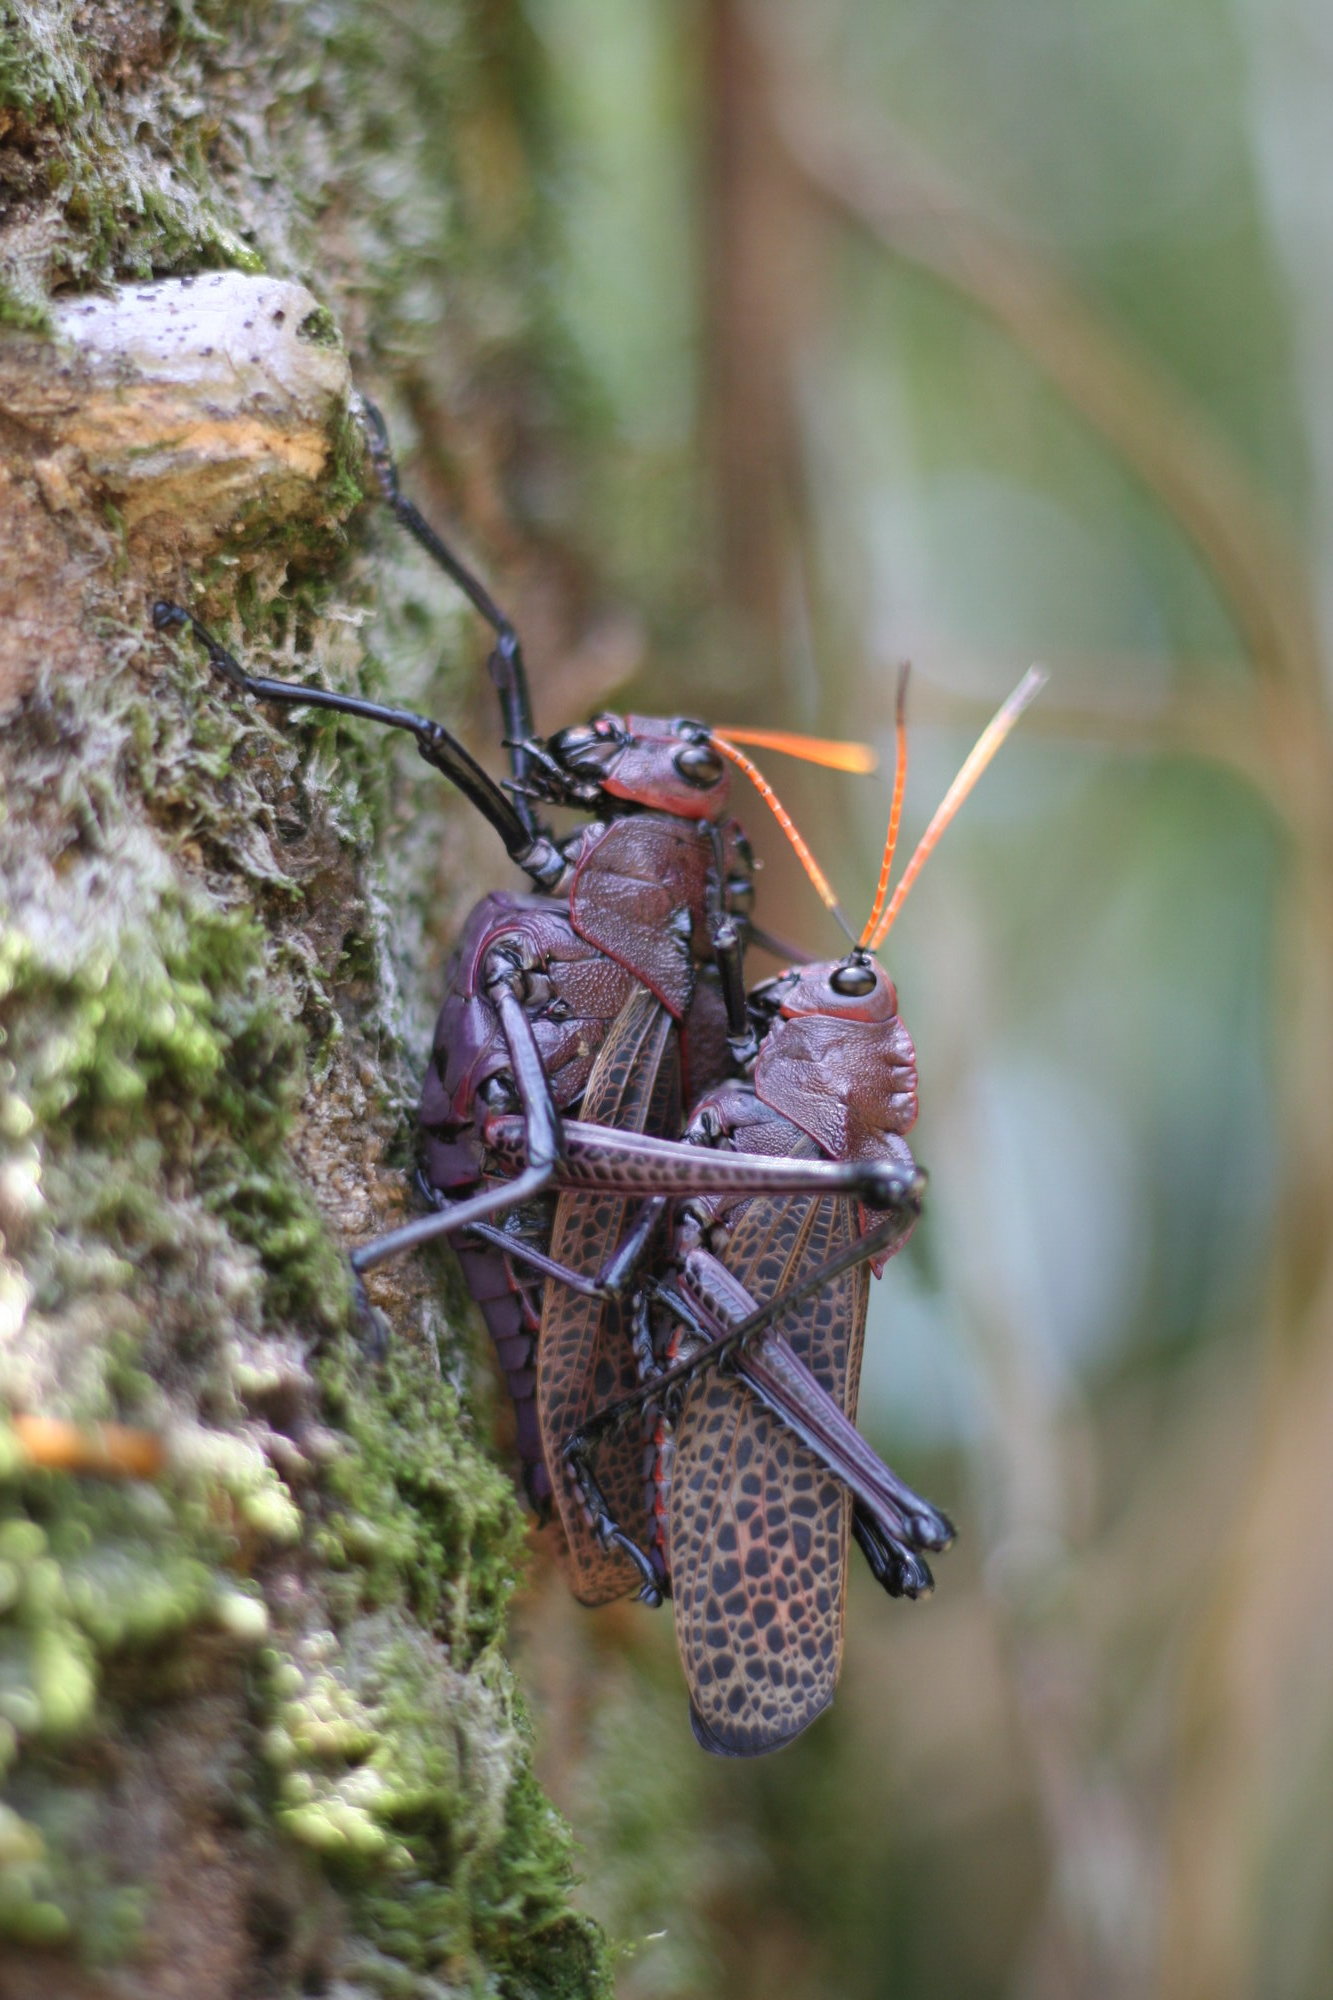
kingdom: Animalia
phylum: Arthropoda
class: Insecta
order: Orthoptera
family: Romaleidae
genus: Romalea
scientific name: Romalea
